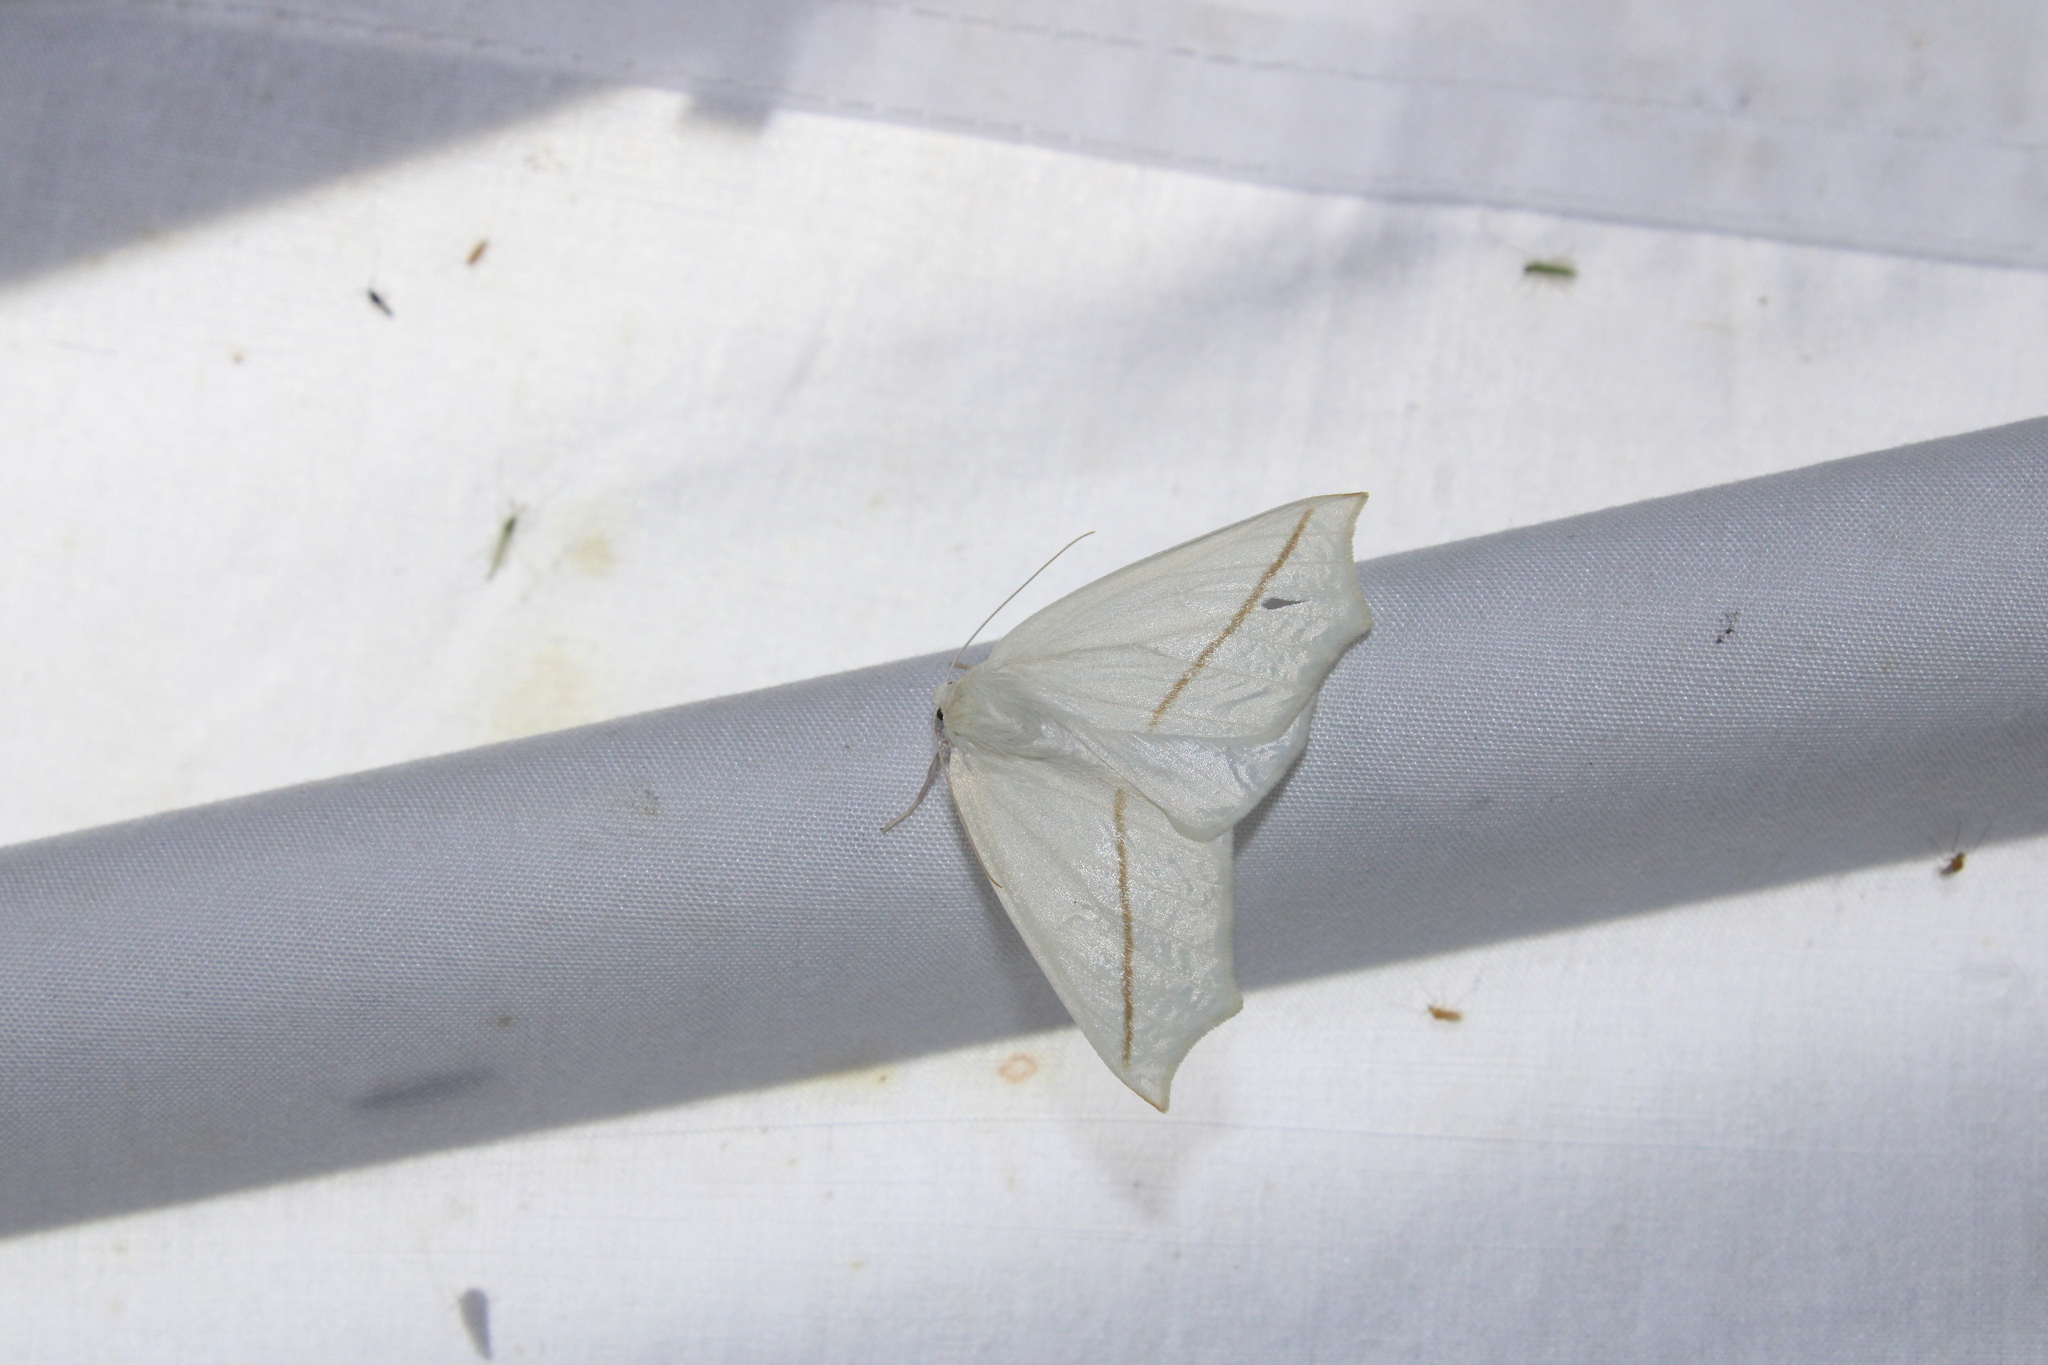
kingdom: Animalia
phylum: Arthropoda
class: Insecta
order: Lepidoptera
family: Geometridae
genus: Tetracis
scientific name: Tetracis cachexiata
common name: White slant-line
